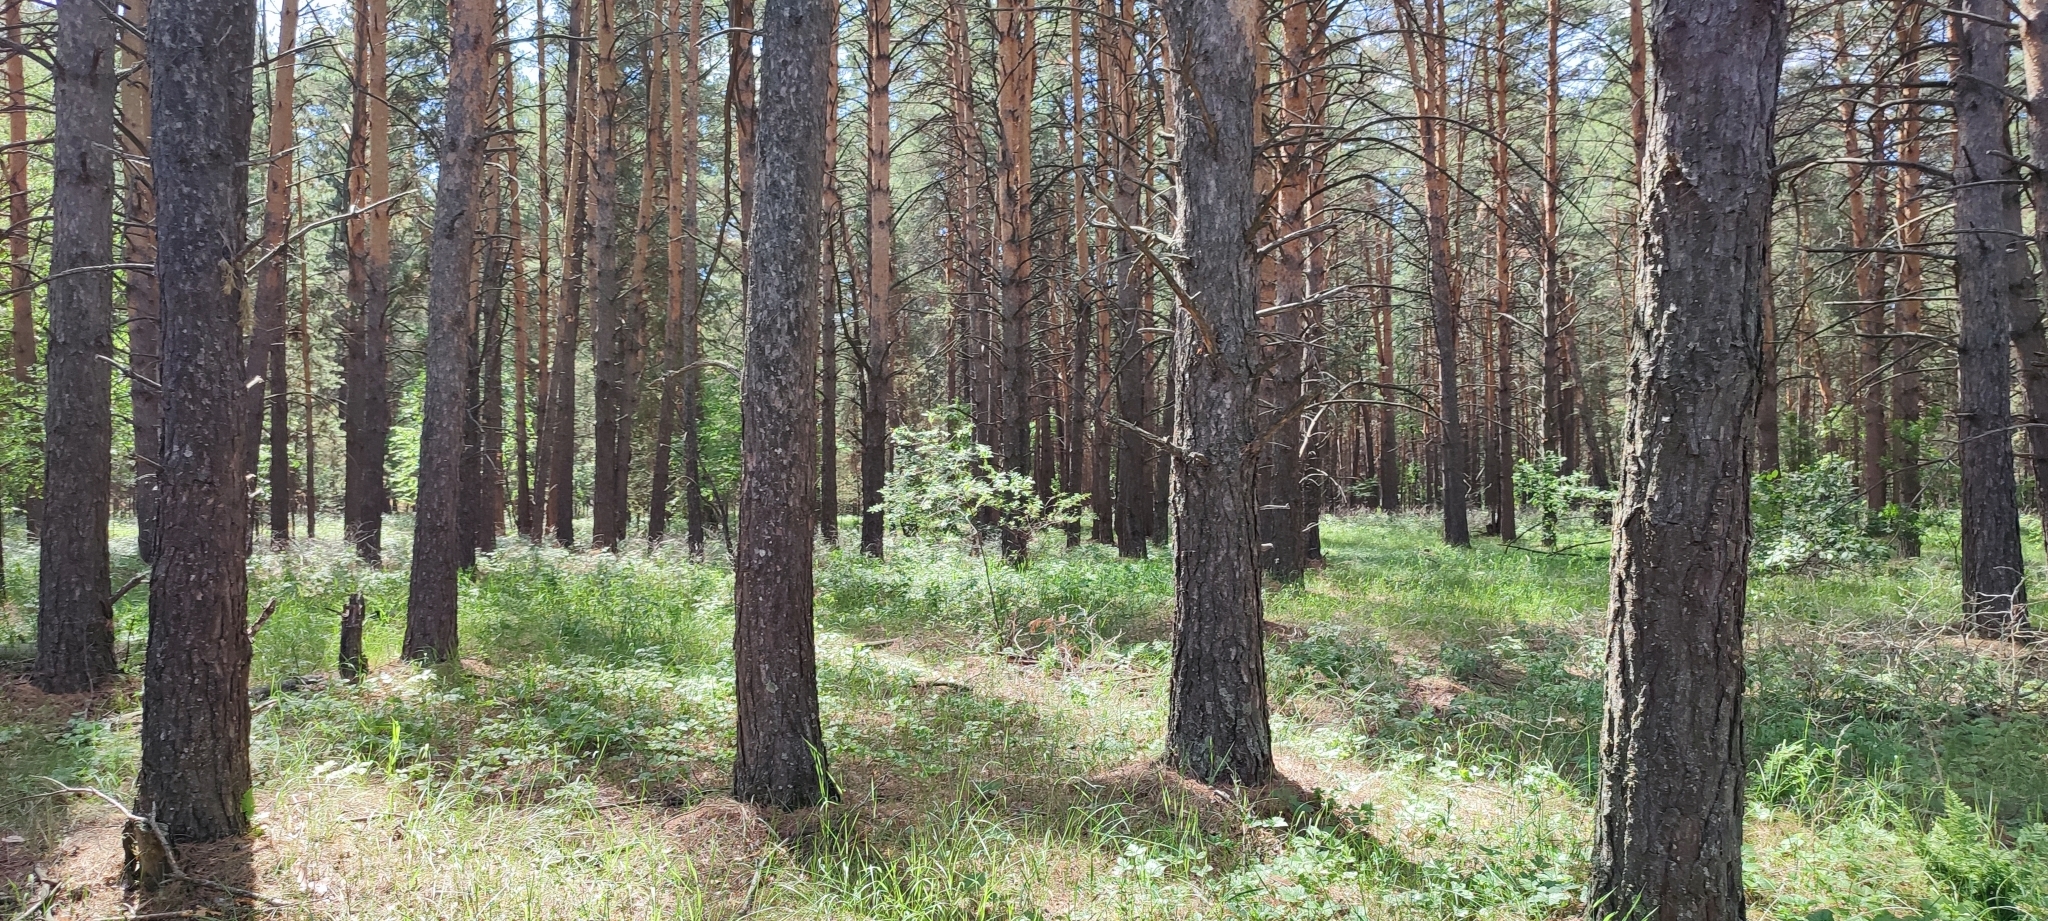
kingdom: Plantae
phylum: Tracheophyta
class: Pinopsida
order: Pinales
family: Pinaceae
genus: Pinus
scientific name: Pinus sylvestris
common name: Scots pine
